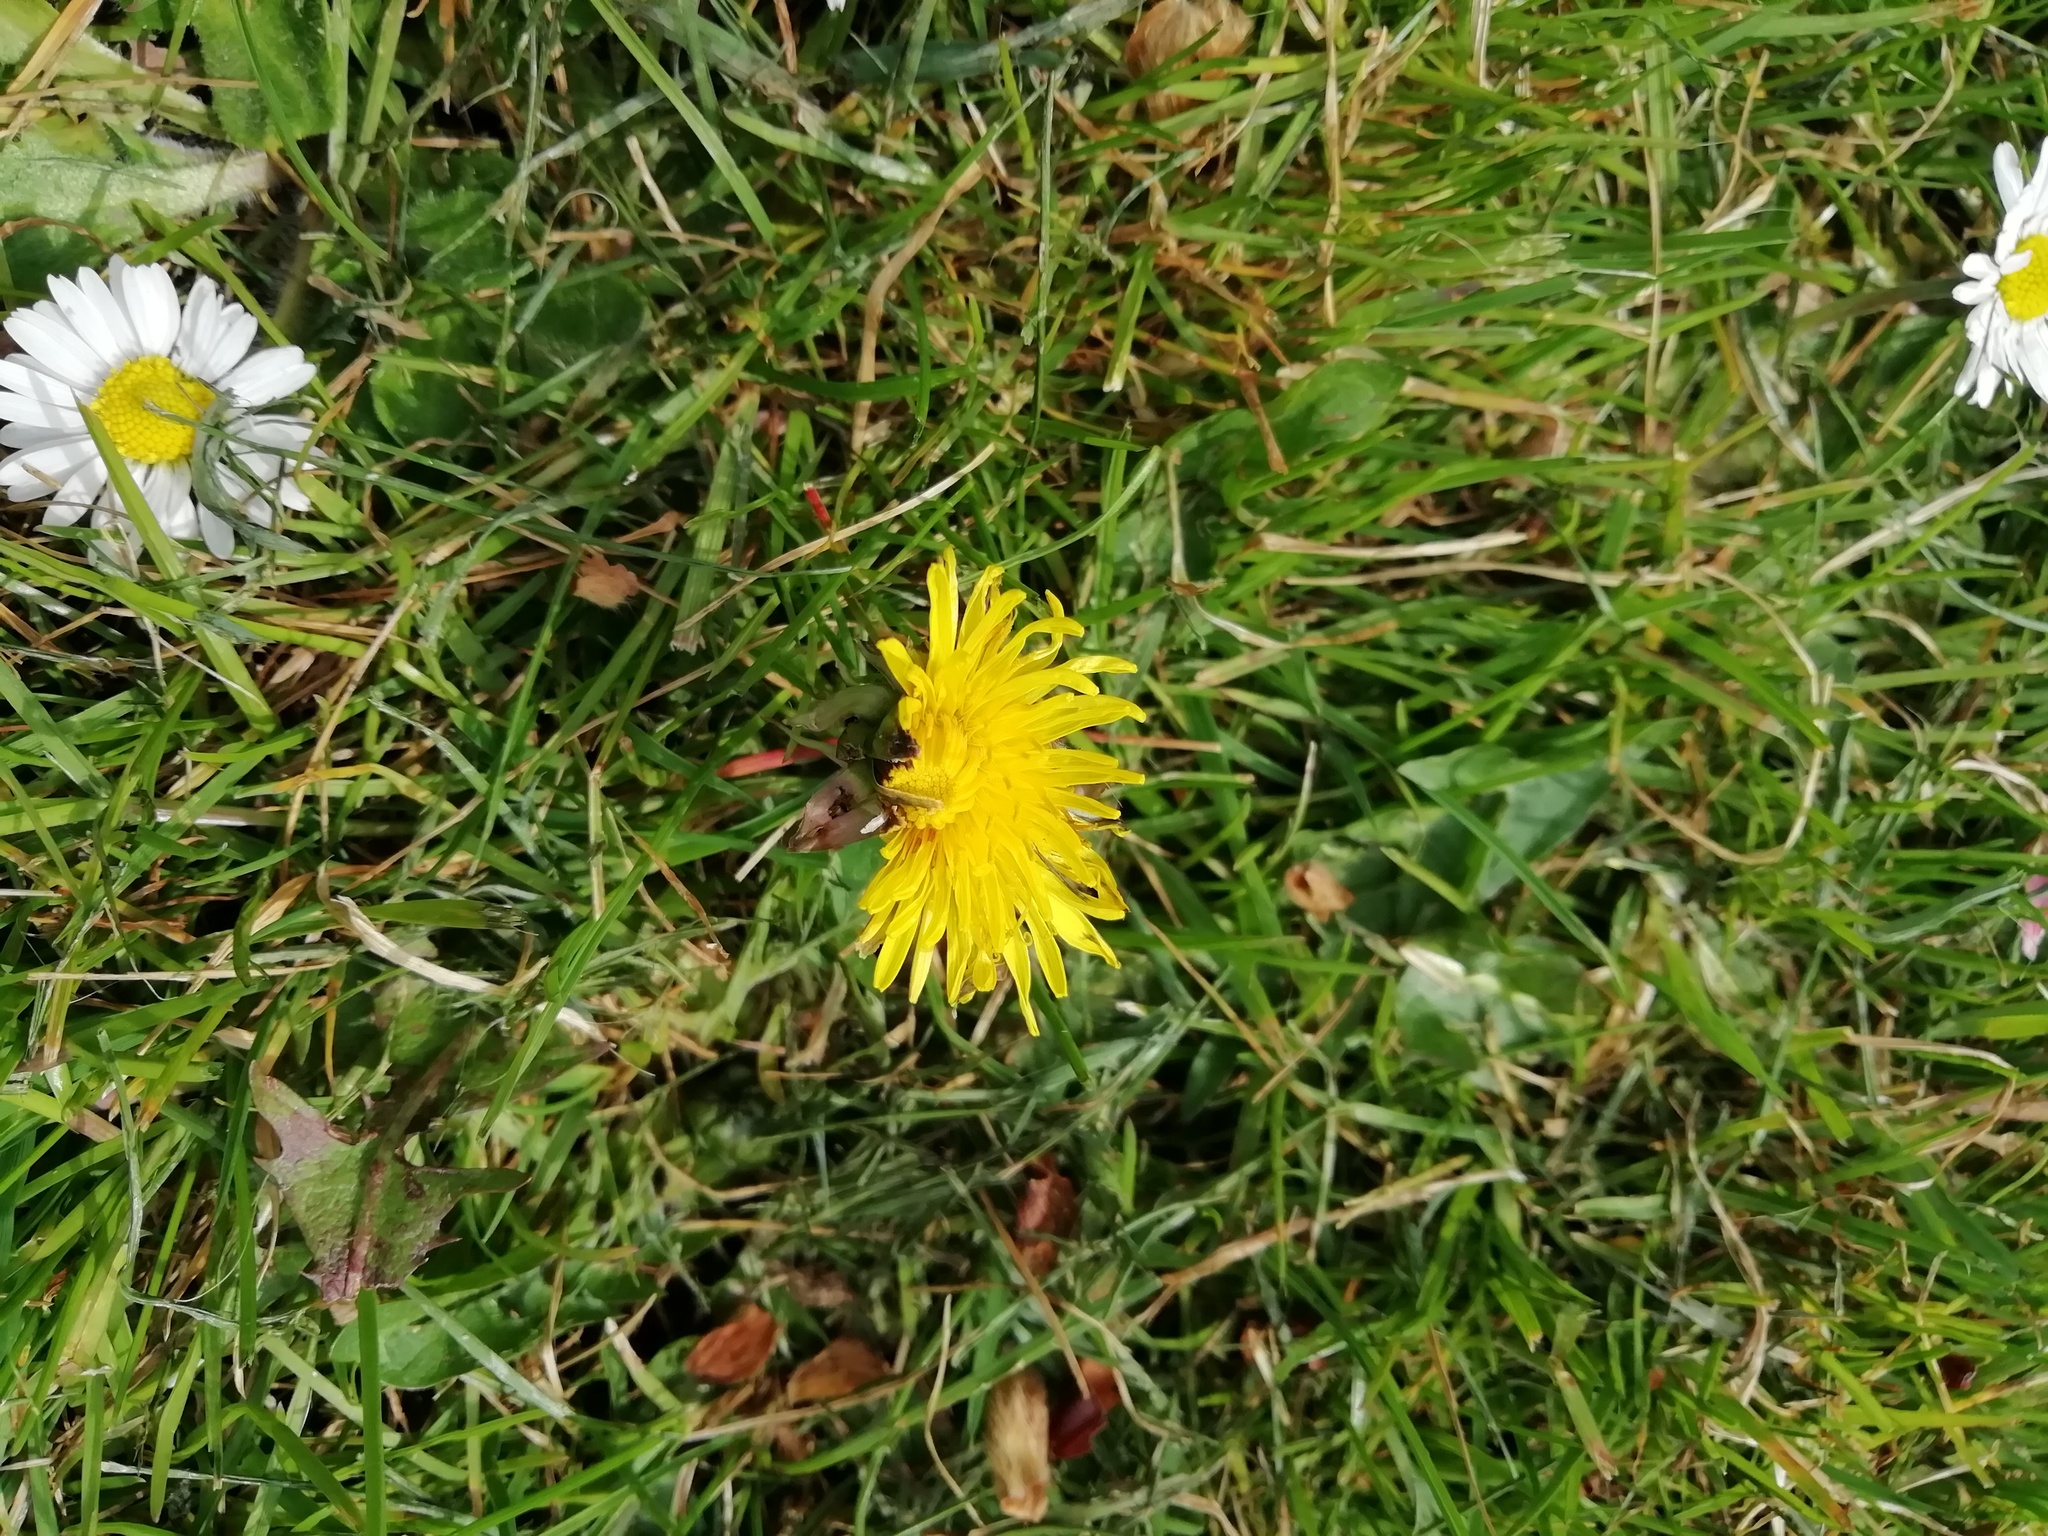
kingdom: Plantae
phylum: Tracheophyta
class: Magnoliopsida
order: Asterales
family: Asteraceae
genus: Taraxacum
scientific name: Taraxacum officinale
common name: Common dandelion
